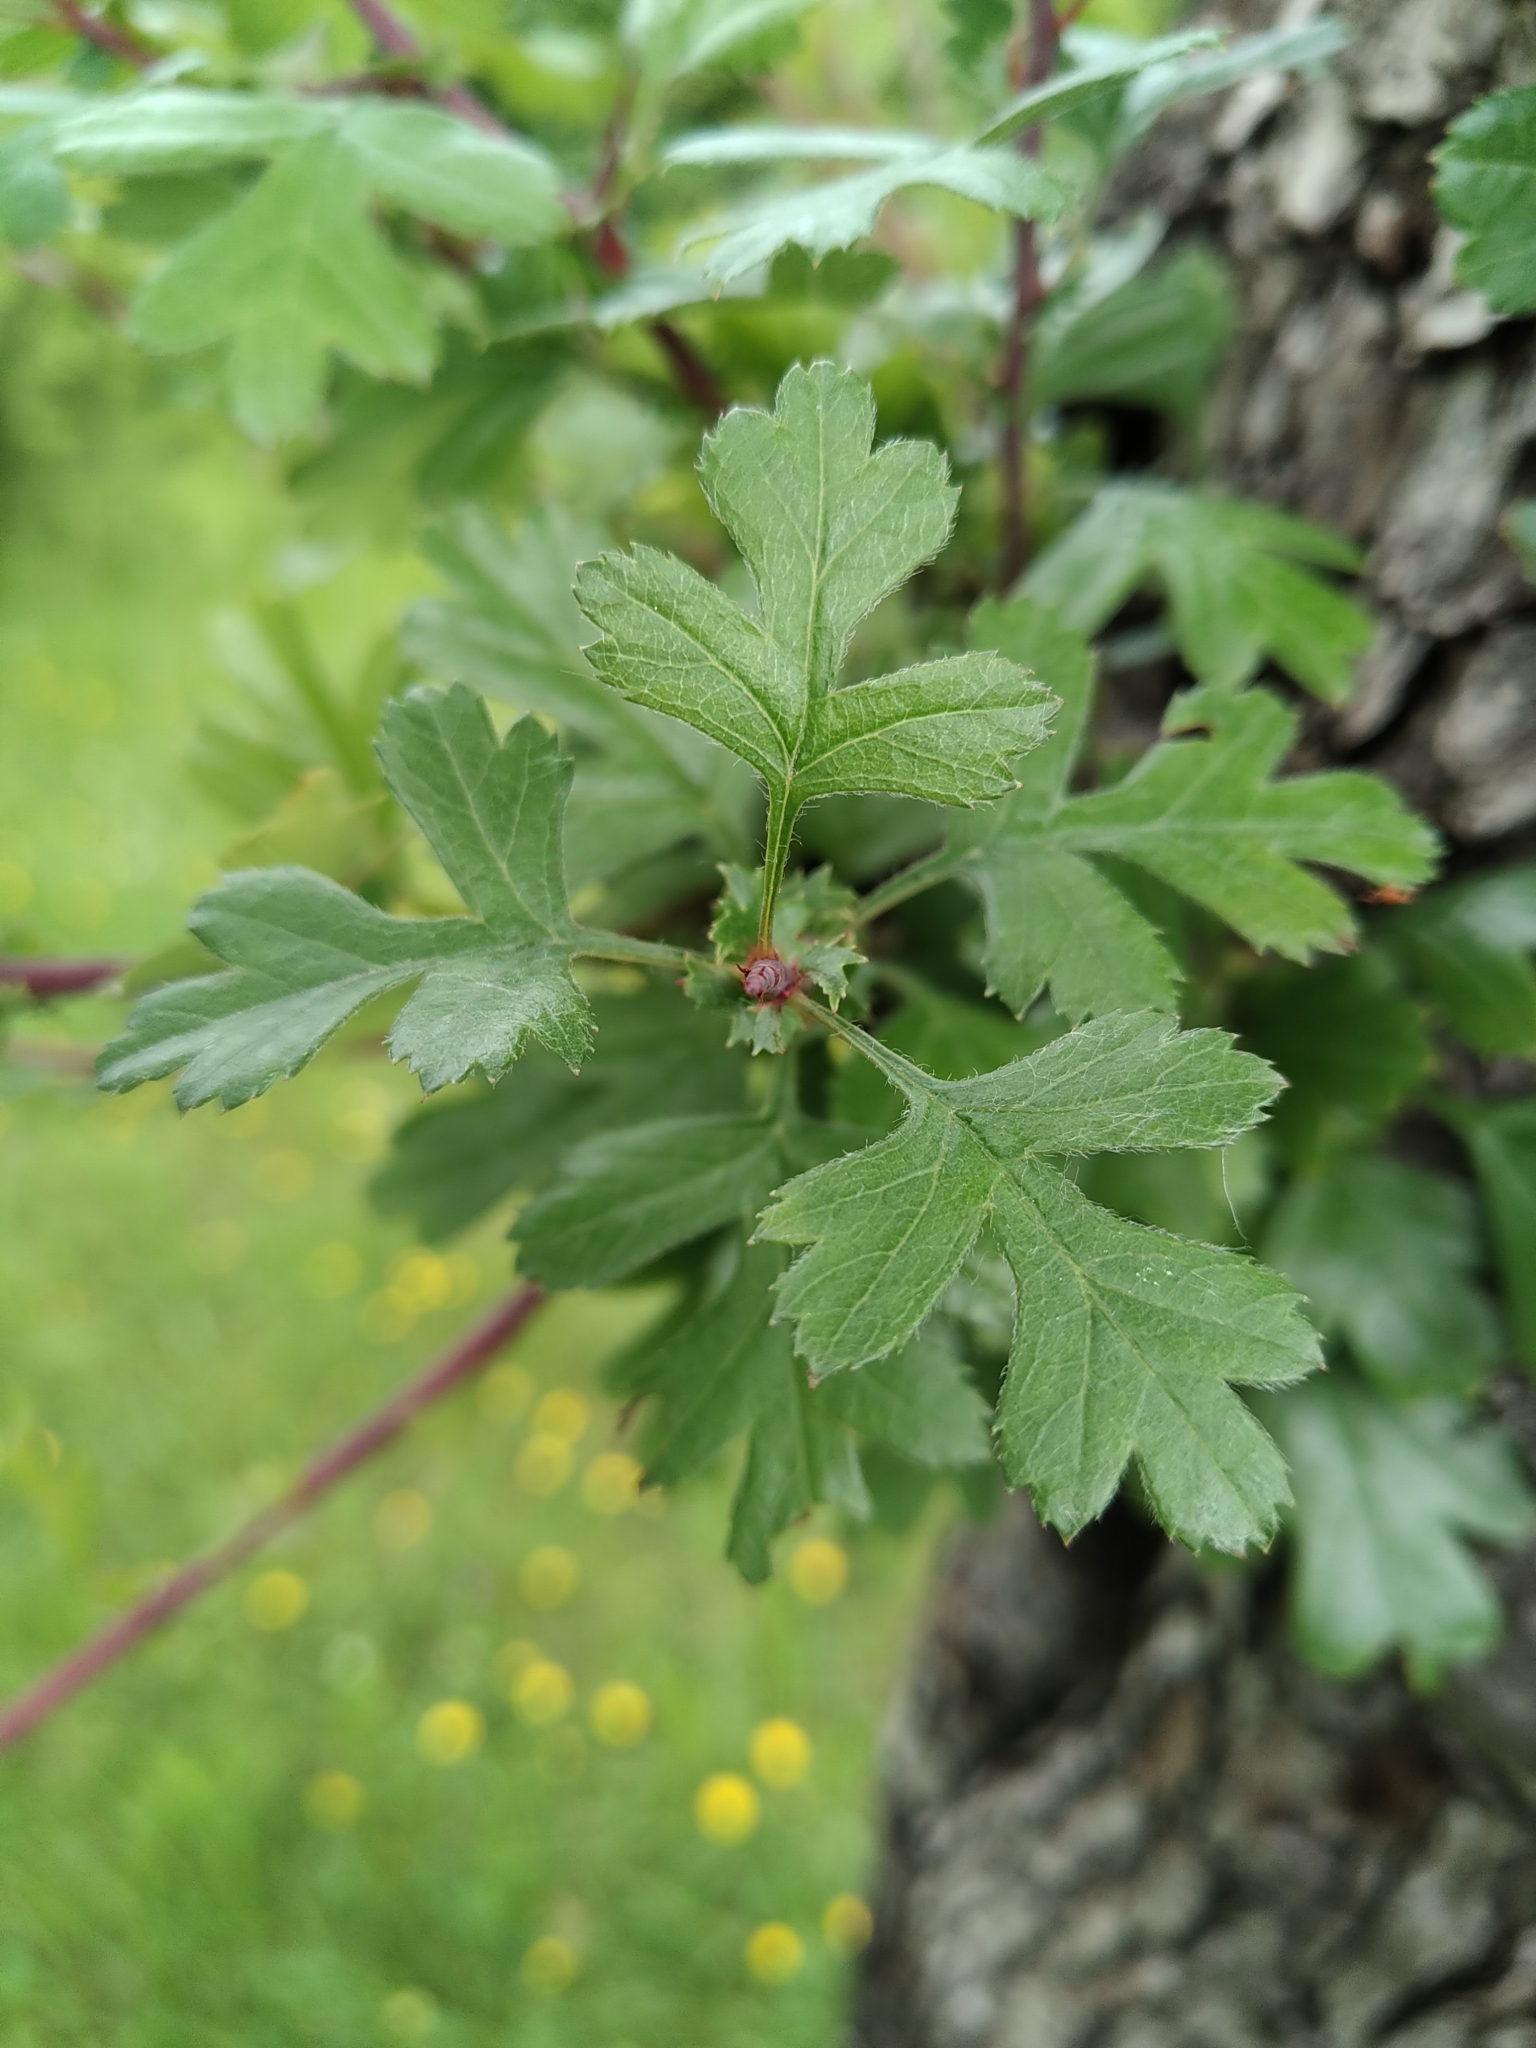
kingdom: Plantae
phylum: Tracheophyta
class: Magnoliopsida
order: Rosales
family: Rosaceae
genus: Crataegus
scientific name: Crataegus monogyna
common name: Hawthorn
